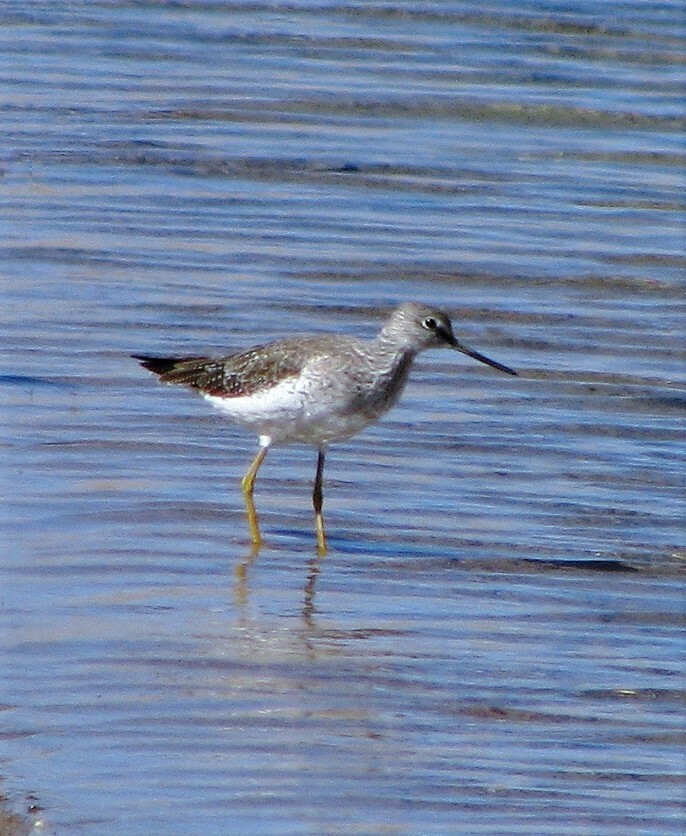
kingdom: Animalia
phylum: Chordata
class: Aves
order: Charadriiformes
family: Scolopacidae
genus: Tringa
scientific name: Tringa melanoleuca
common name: Greater yellowlegs
